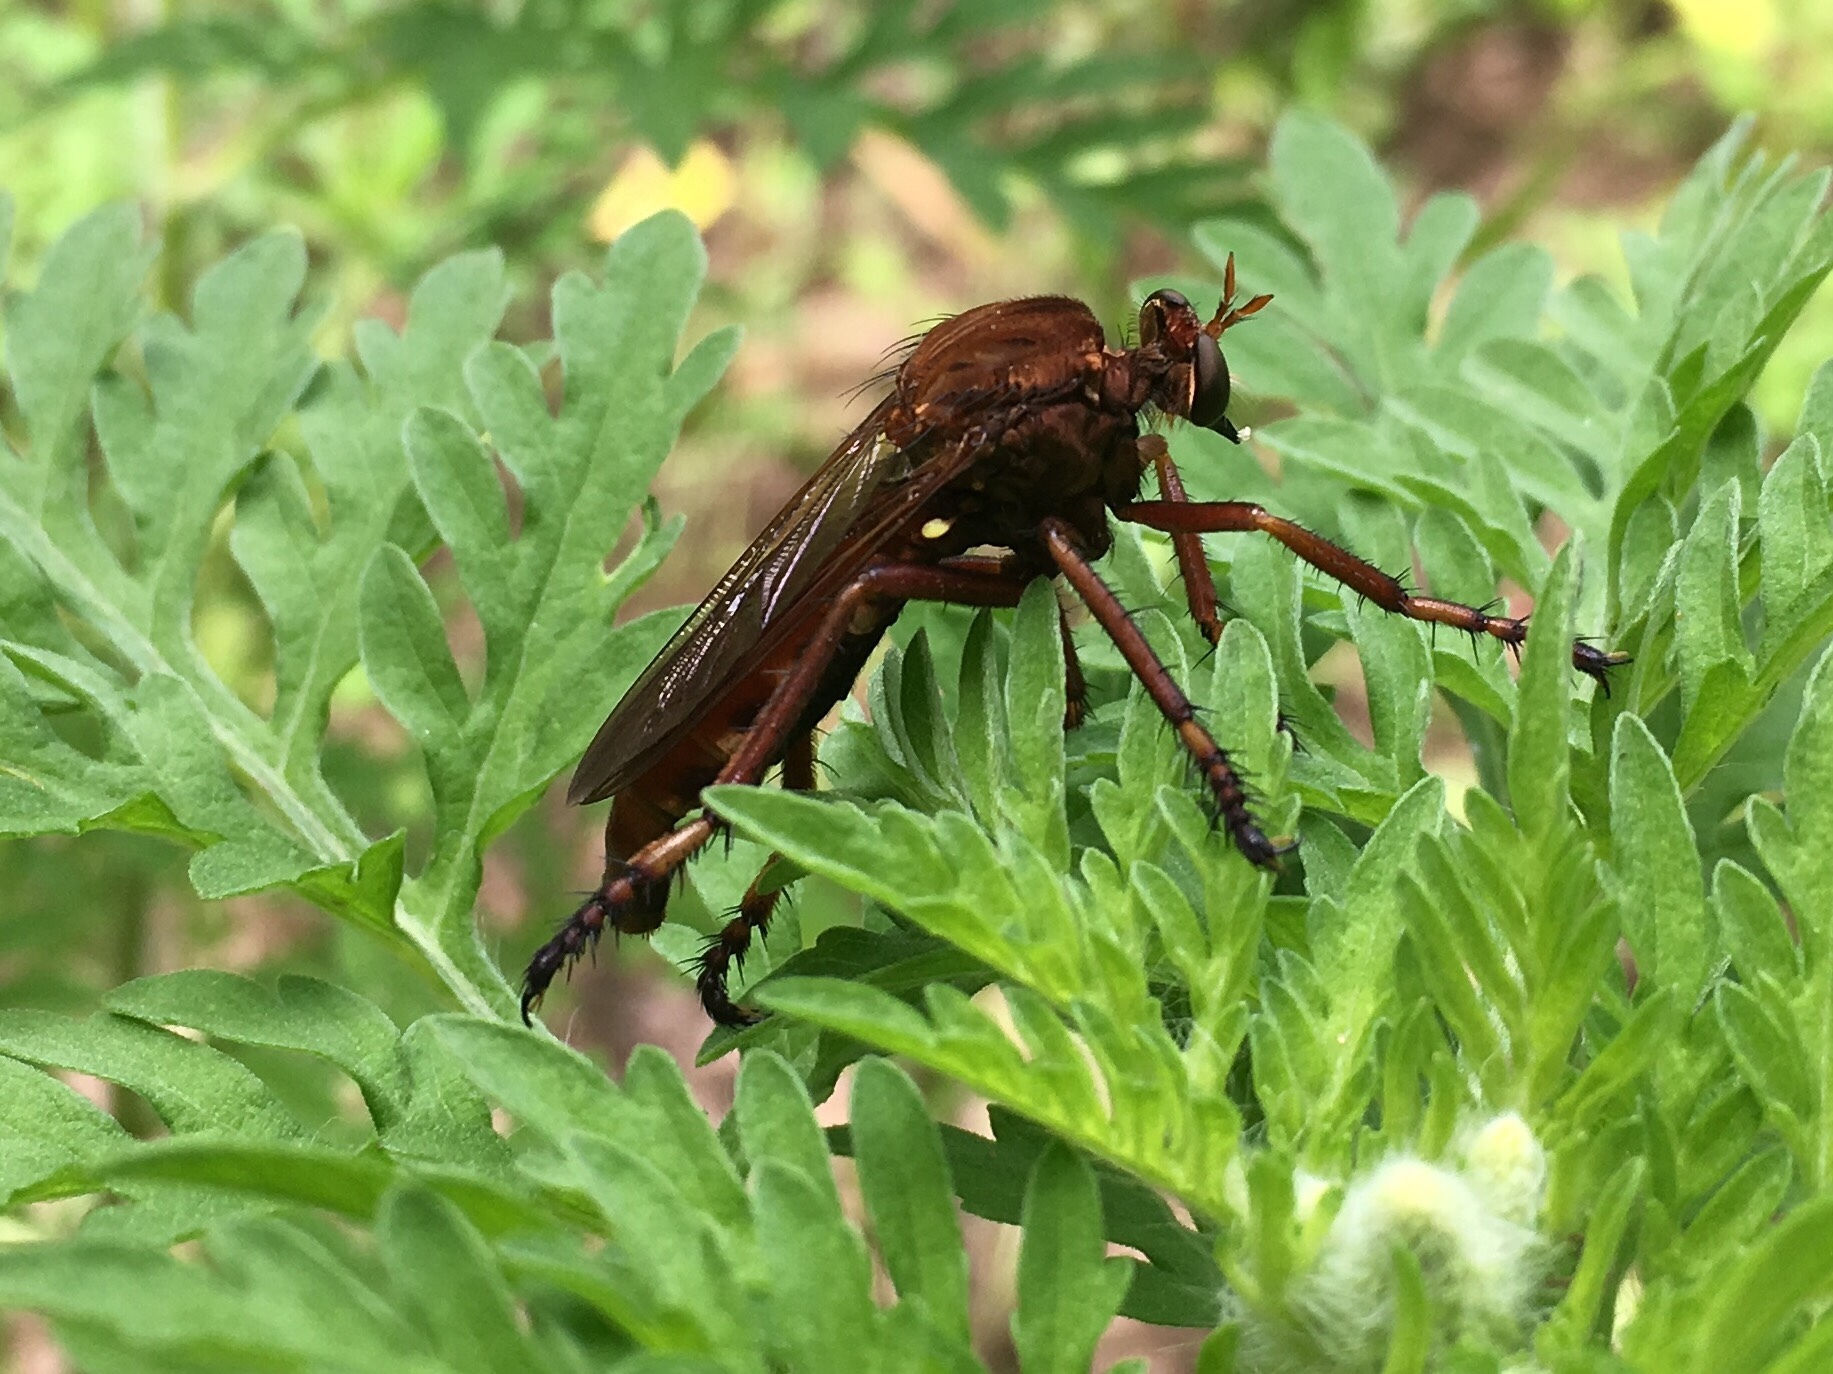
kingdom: Animalia
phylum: Arthropoda
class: Insecta
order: Diptera
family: Asilidae
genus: Diogmites
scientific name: Diogmites basalis
